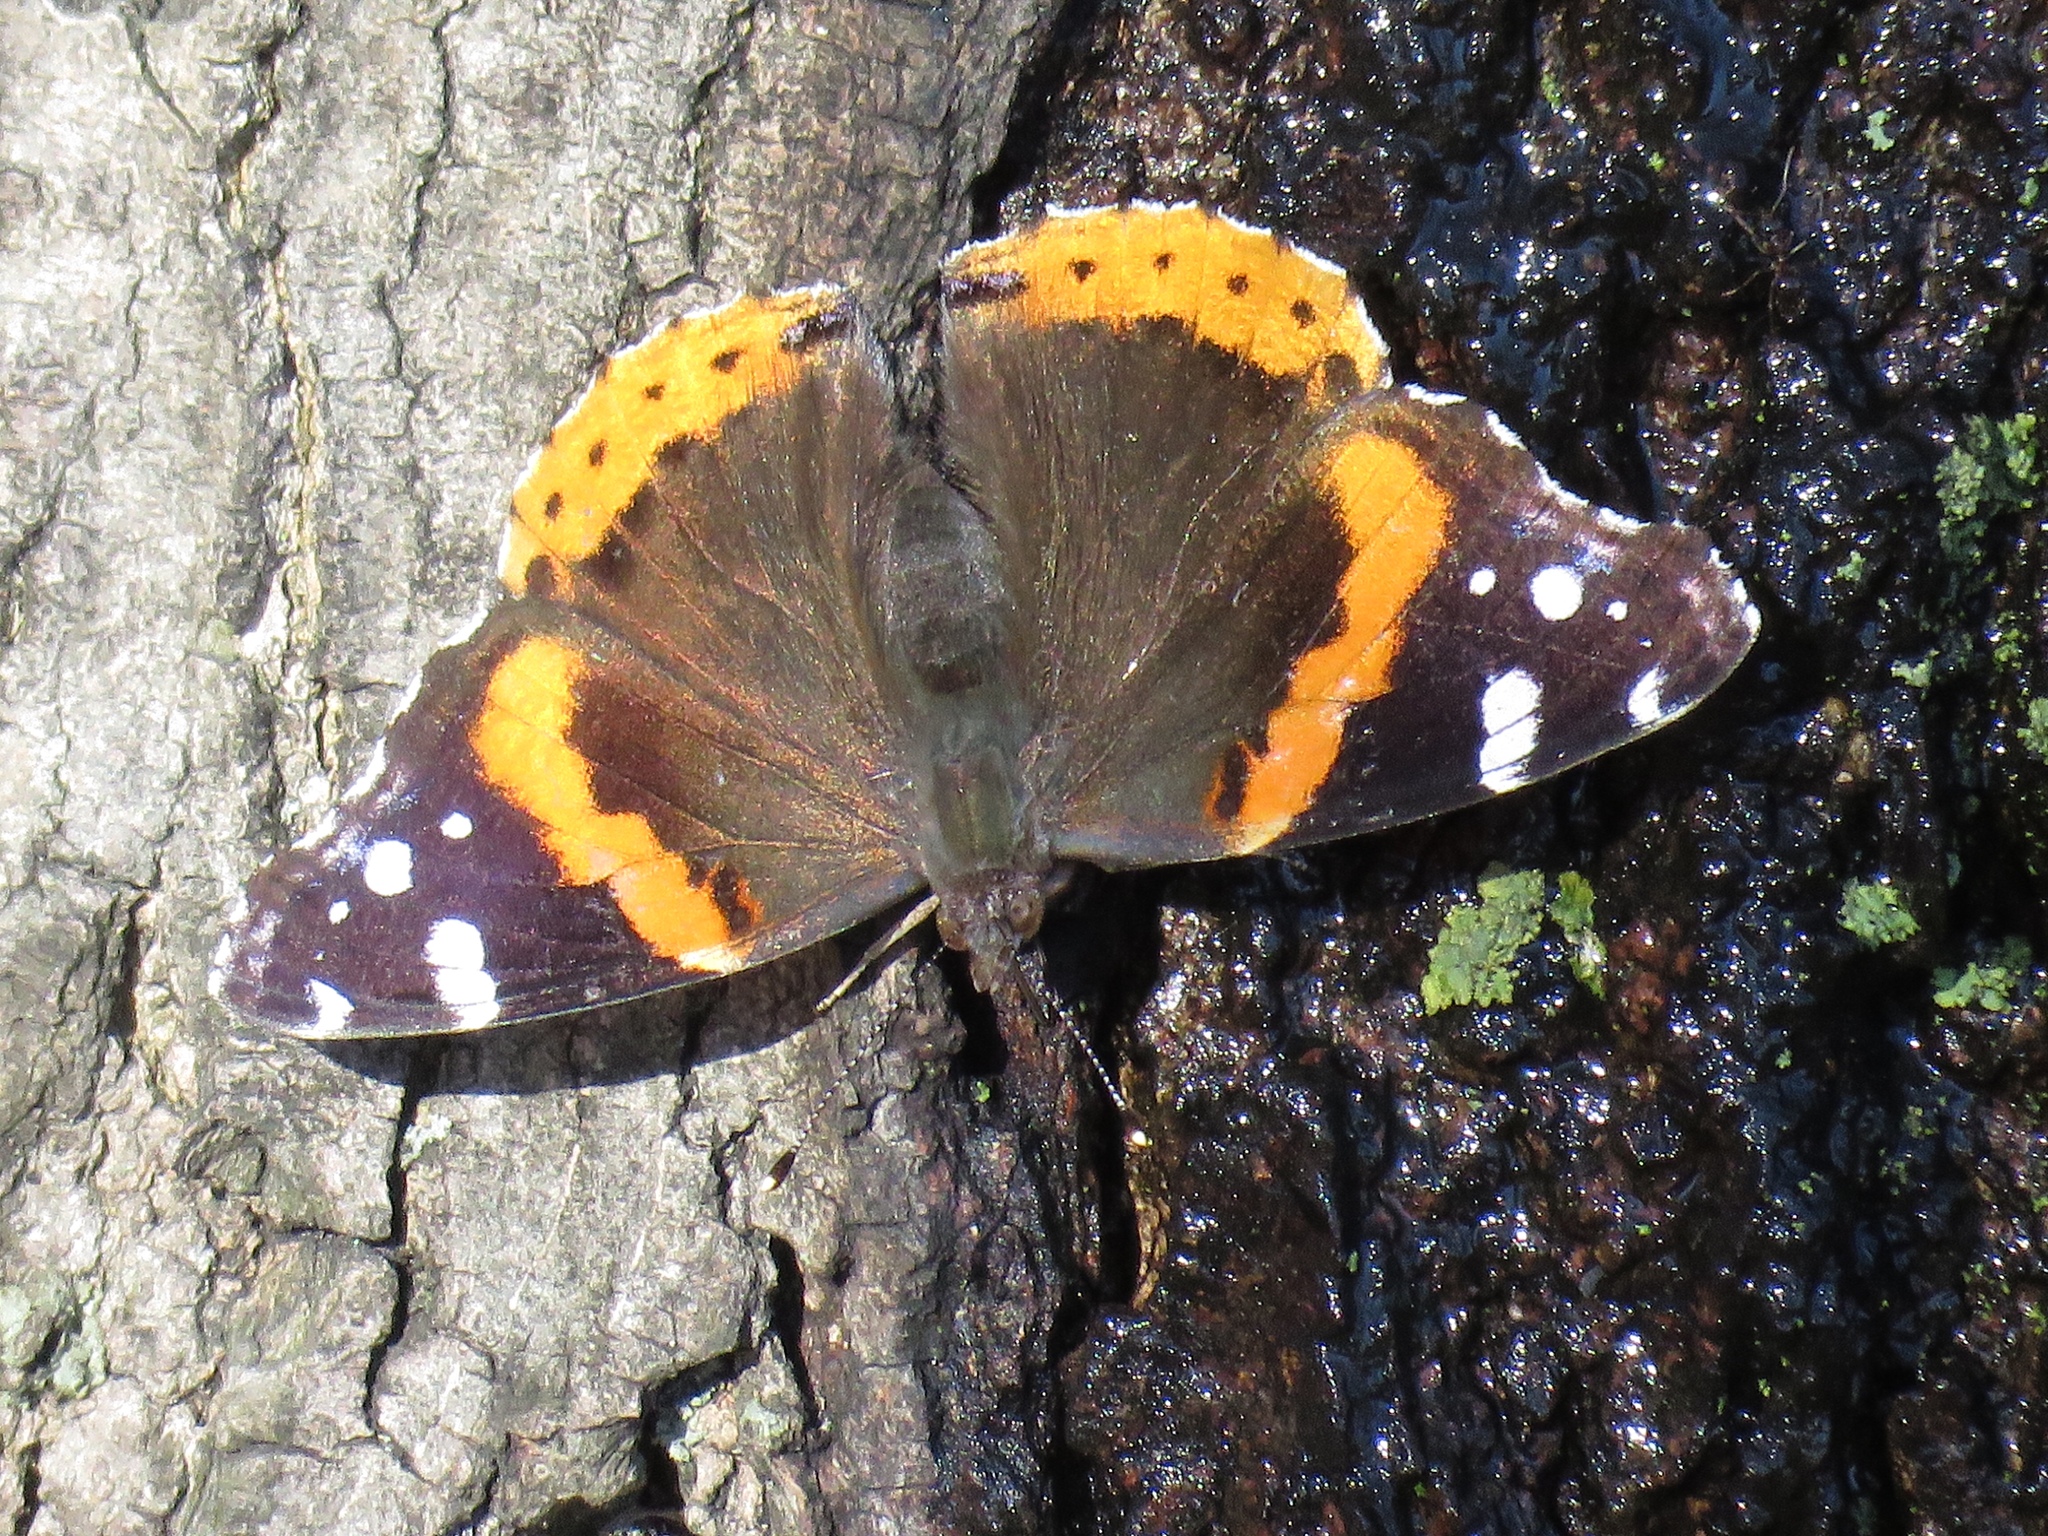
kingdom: Animalia
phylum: Arthropoda
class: Insecta
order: Lepidoptera
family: Nymphalidae
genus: Vanessa
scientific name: Vanessa atalanta
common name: Red admiral
